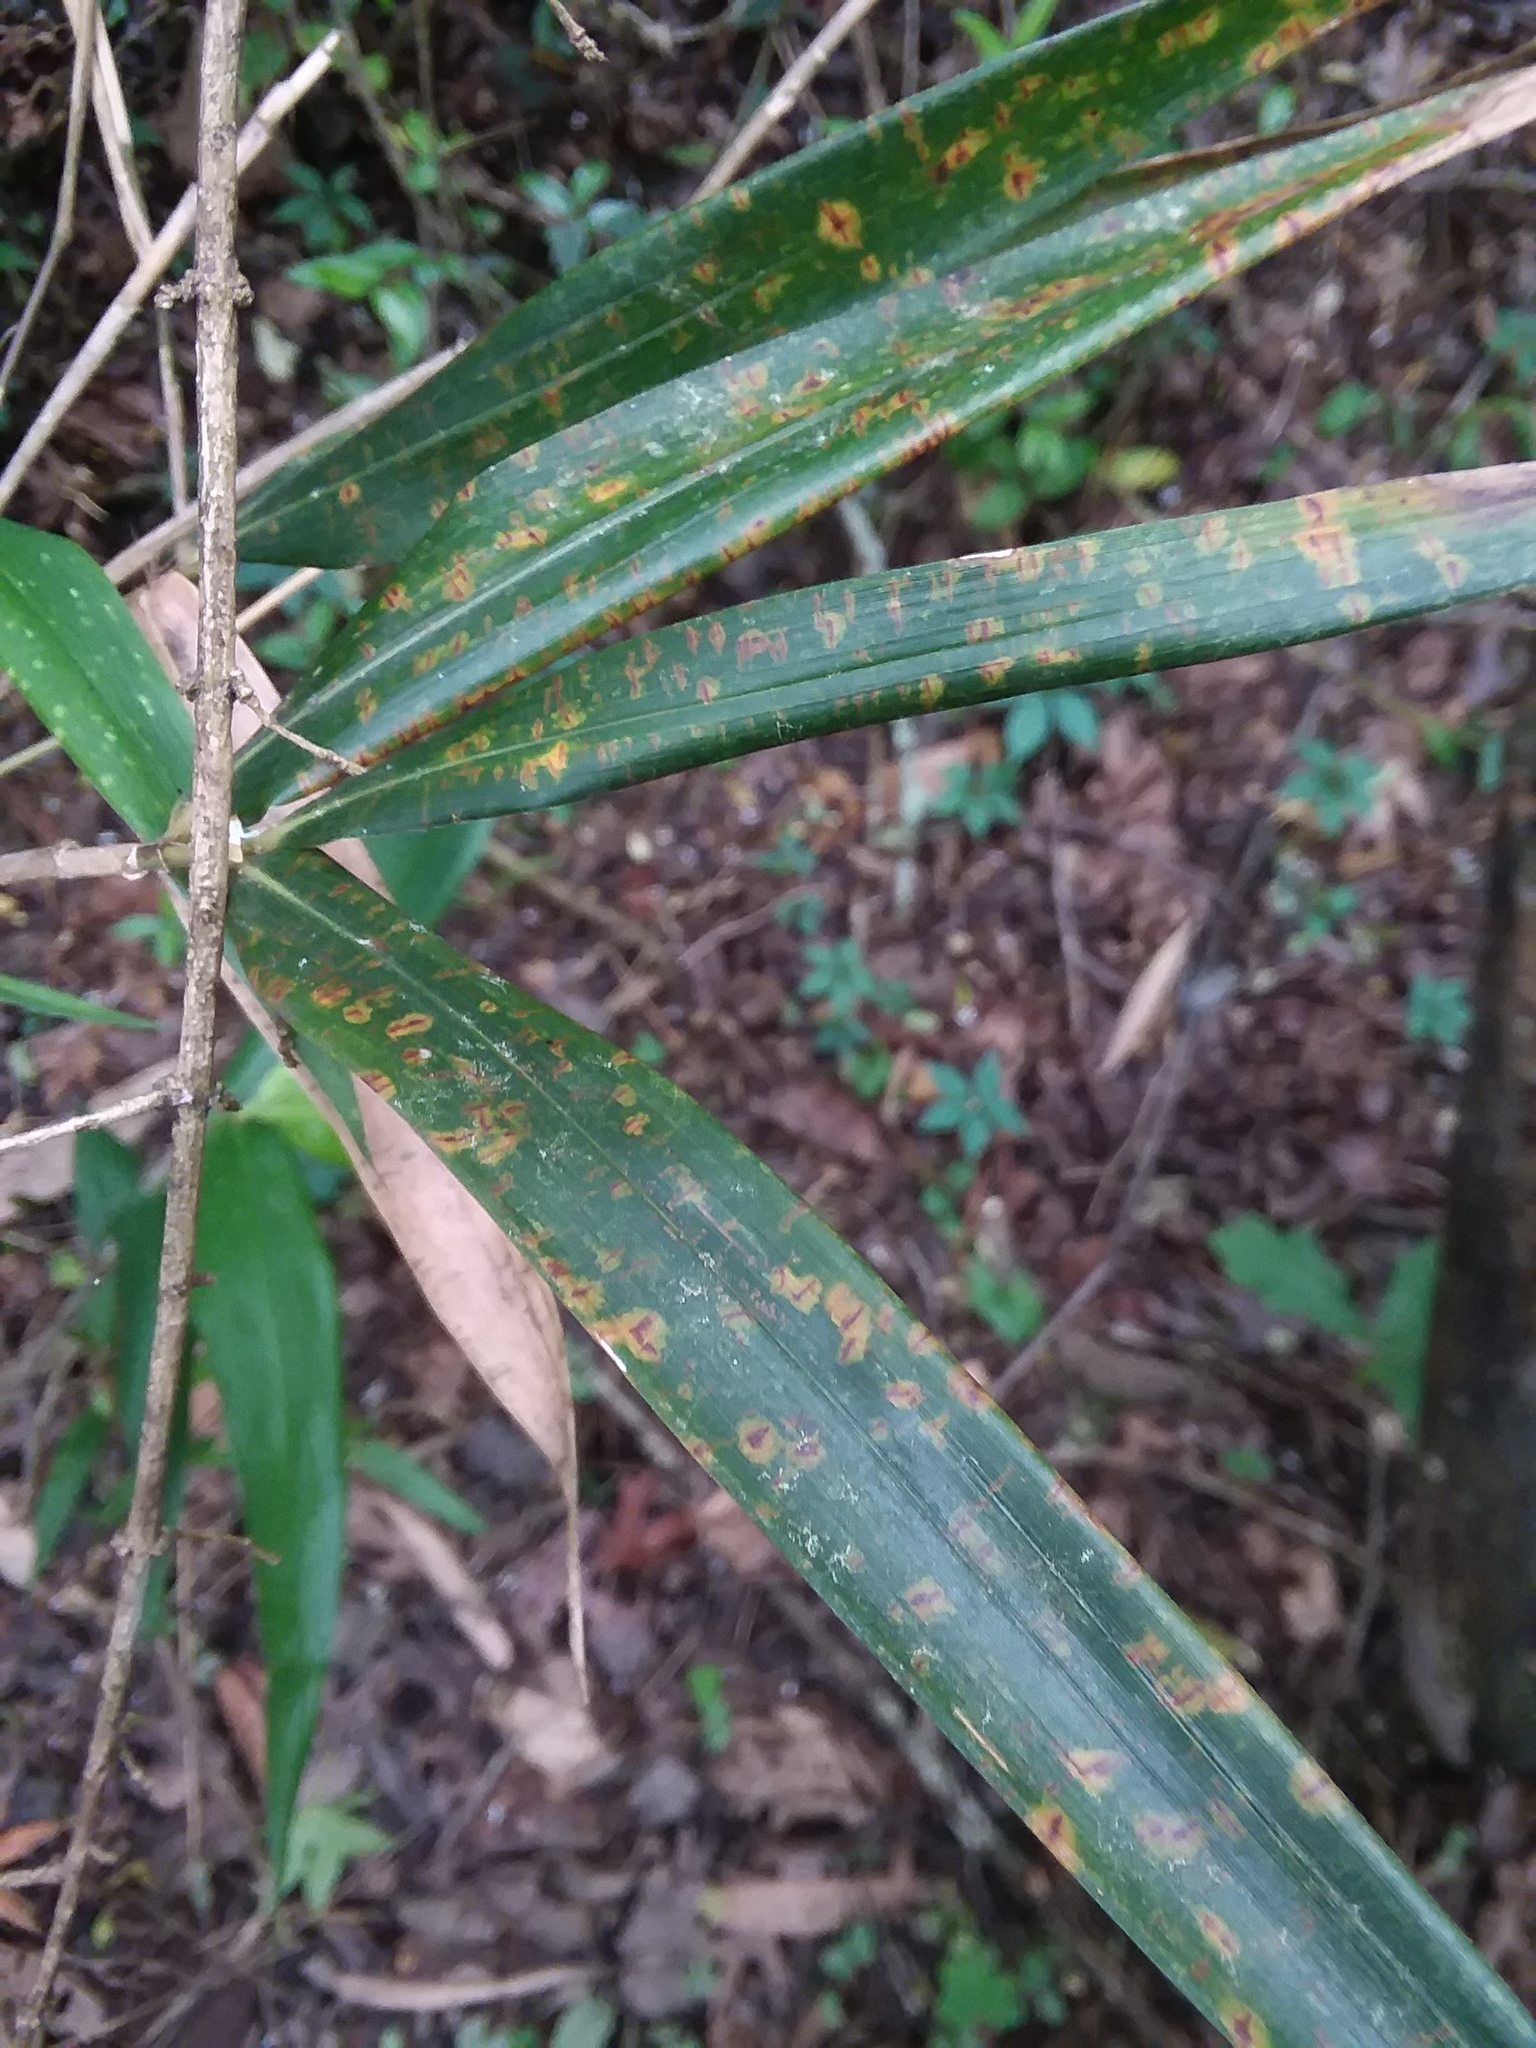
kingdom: Plantae
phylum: Tracheophyta
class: Liliopsida
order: Poales
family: Poaceae
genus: Arundinaria
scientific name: Arundinaria gigantea
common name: Giant cane
